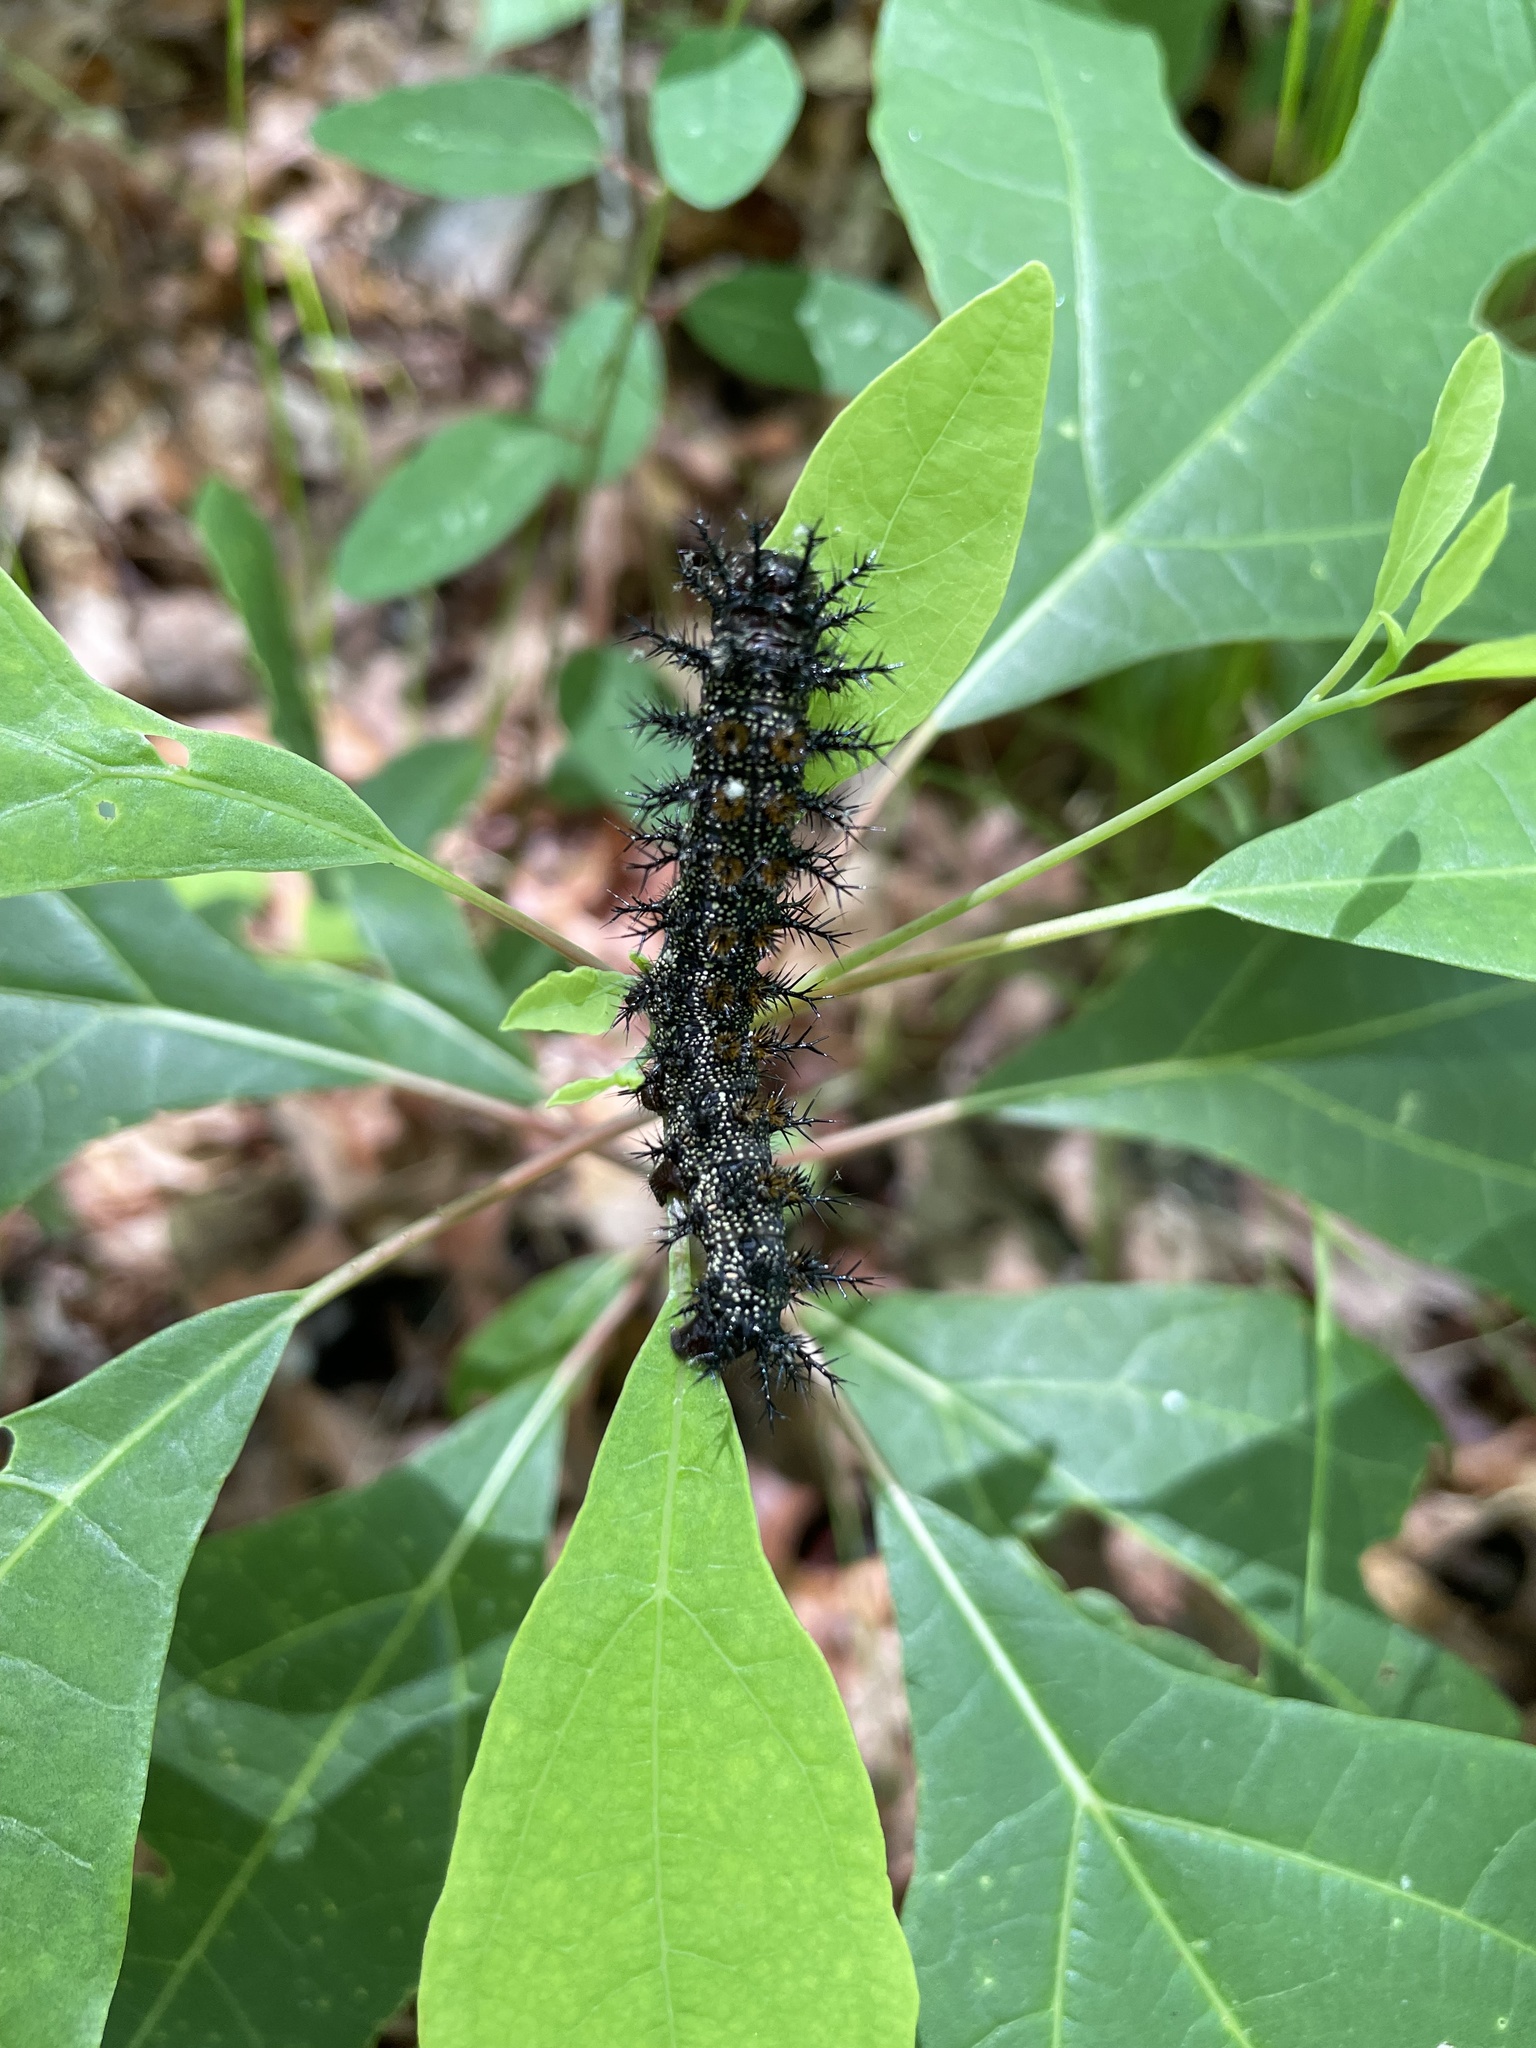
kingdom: Animalia
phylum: Arthropoda
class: Insecta
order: Lepidoptera
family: Saturniidae
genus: Hemileuca
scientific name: Hemileuca maia
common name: Eastern buckmoth
